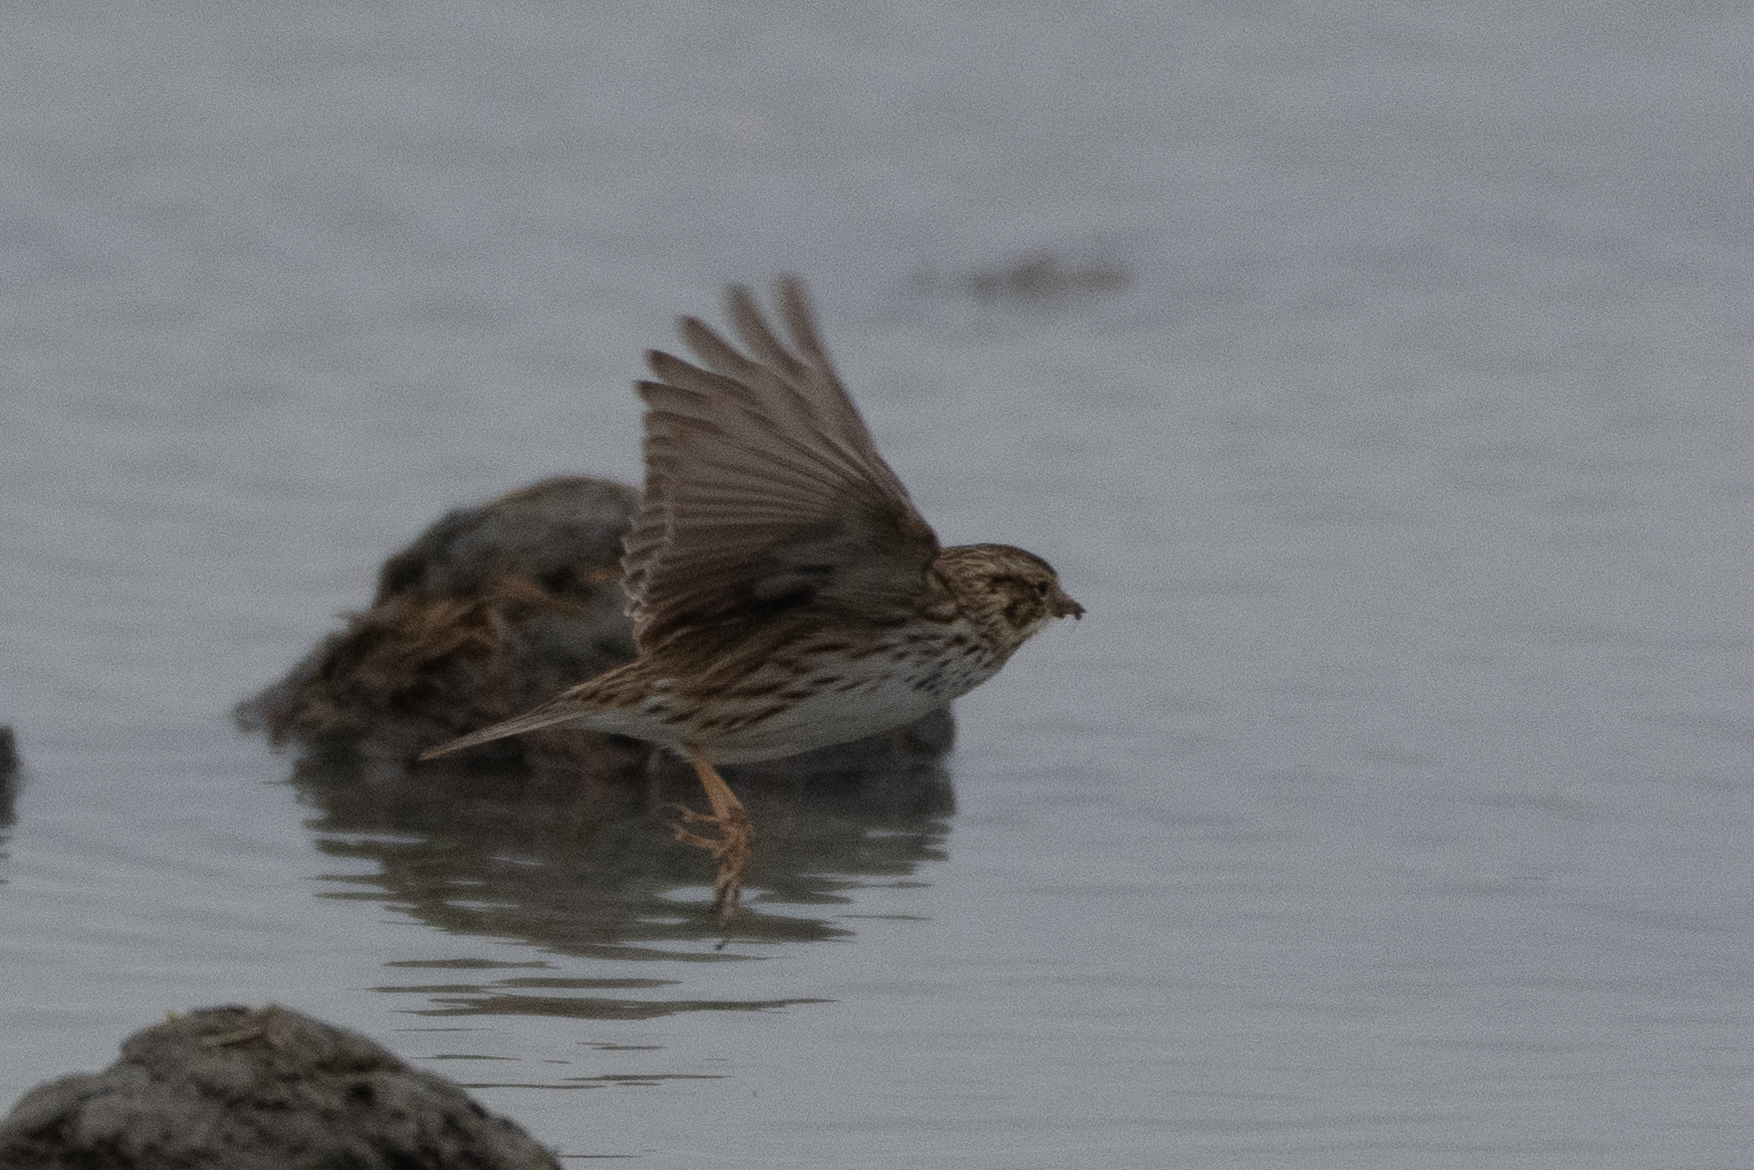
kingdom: Animalia
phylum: Chordata
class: Aves
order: Passeriformes
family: Passerellidae
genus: Passerculus
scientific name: Passerculus sandwichensis
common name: Savannah sparrow
